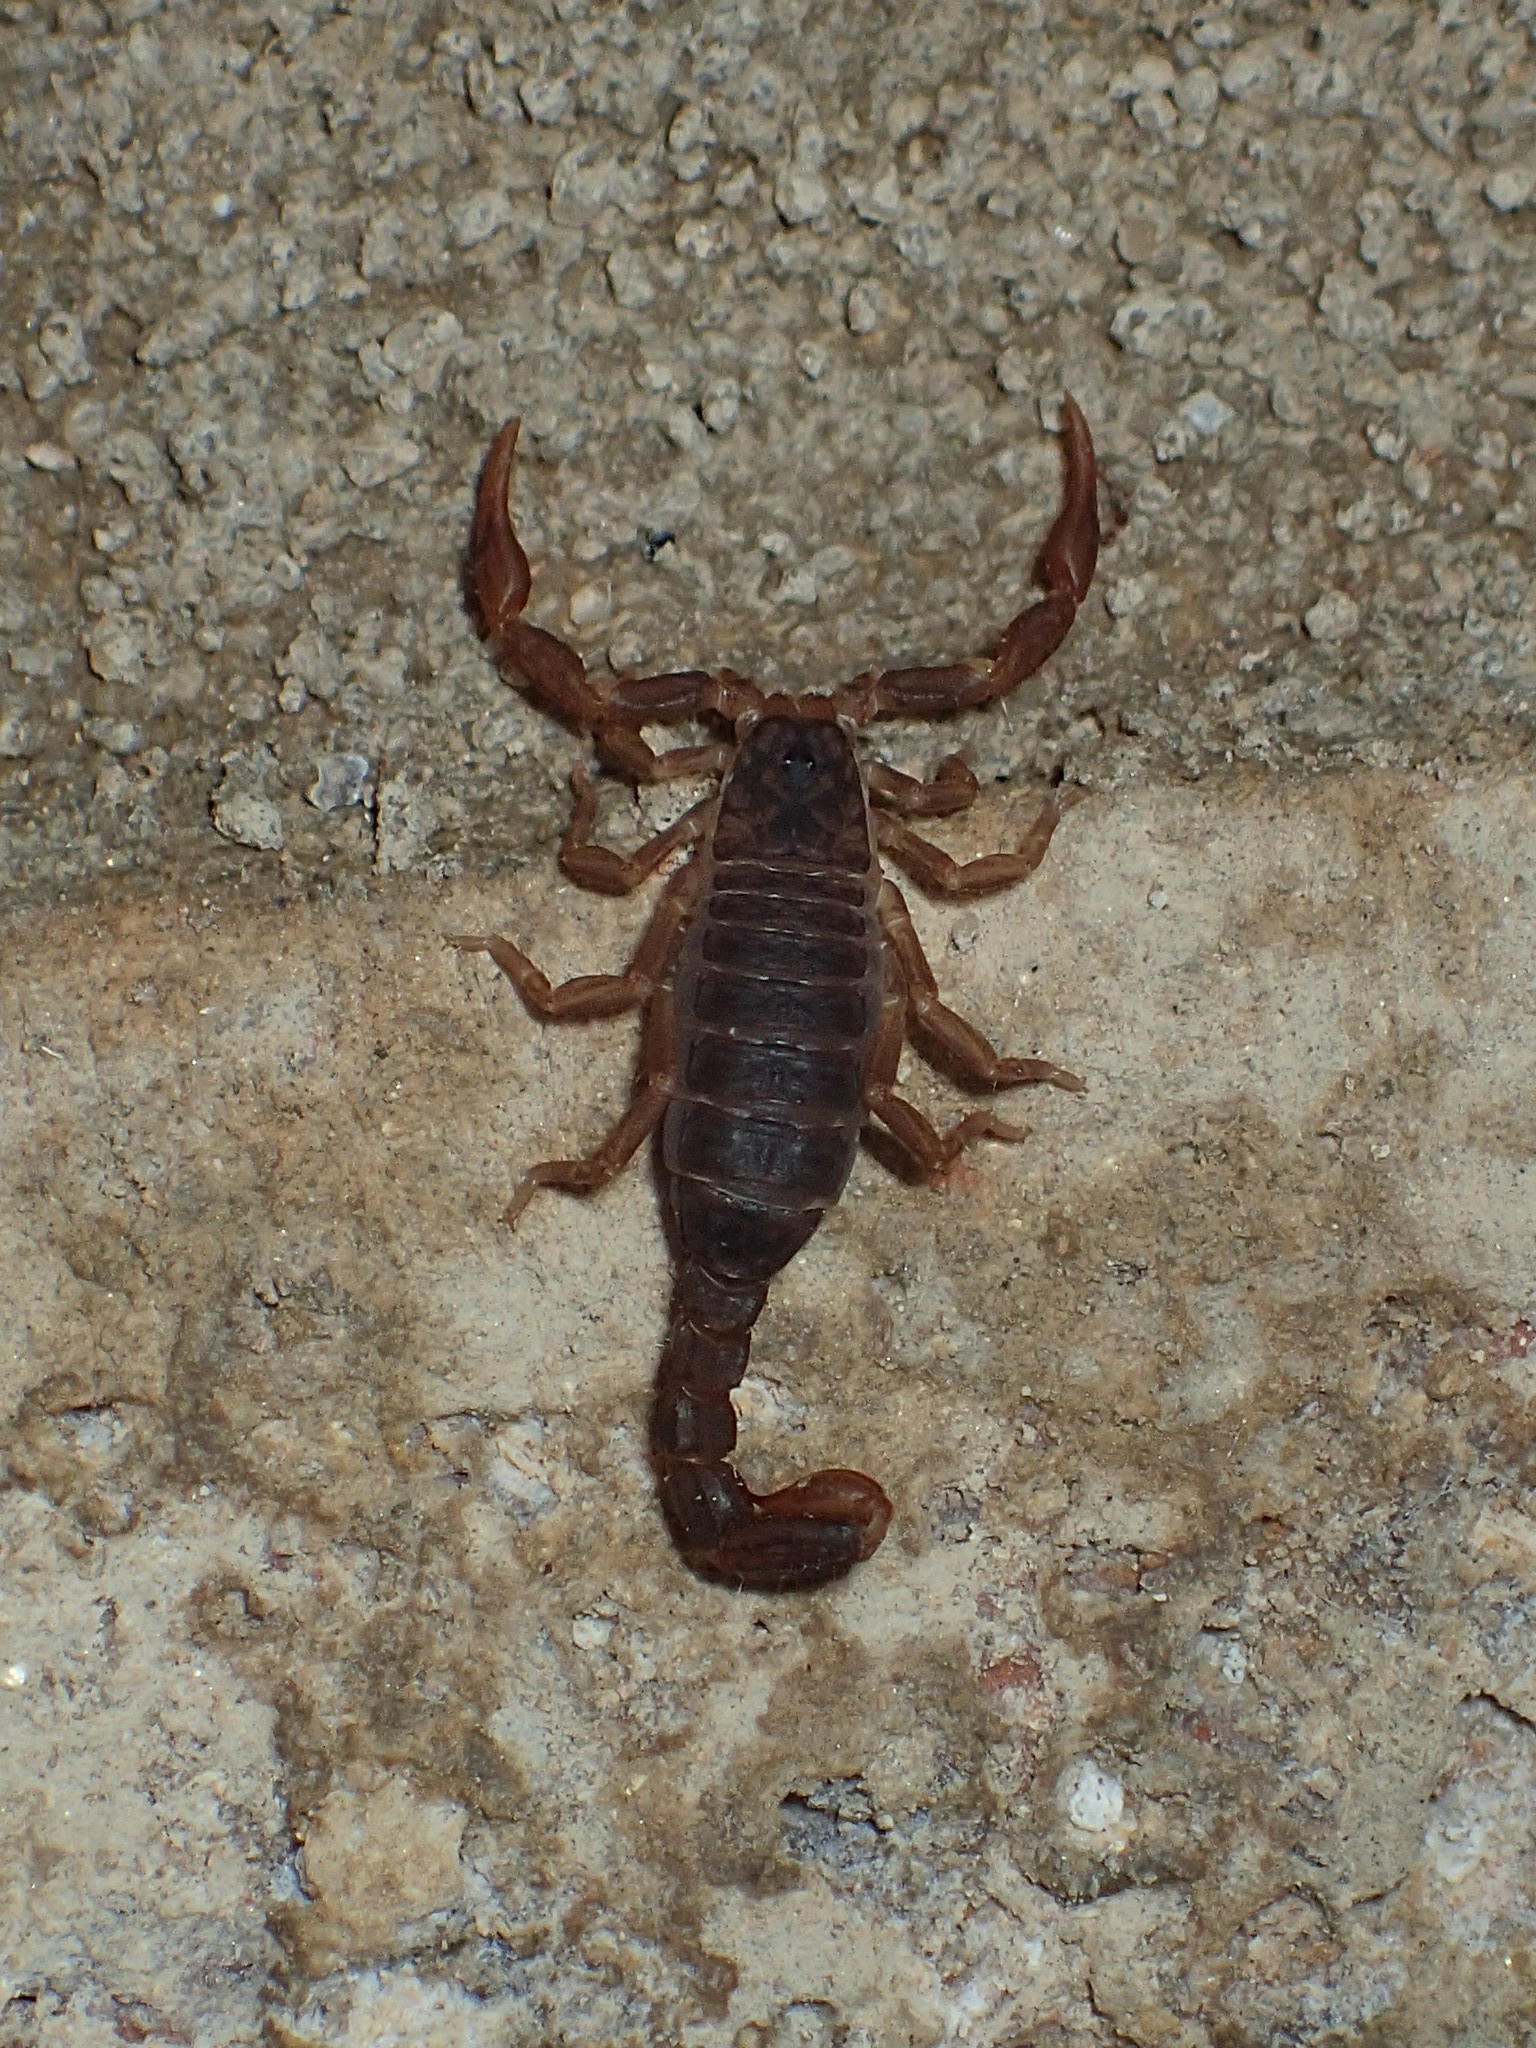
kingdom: Animalia
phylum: Arthropoda
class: Arachnida
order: Scorpiones
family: Vaejovidae
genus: Vaejovis
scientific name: Vaejovis carolinianus
